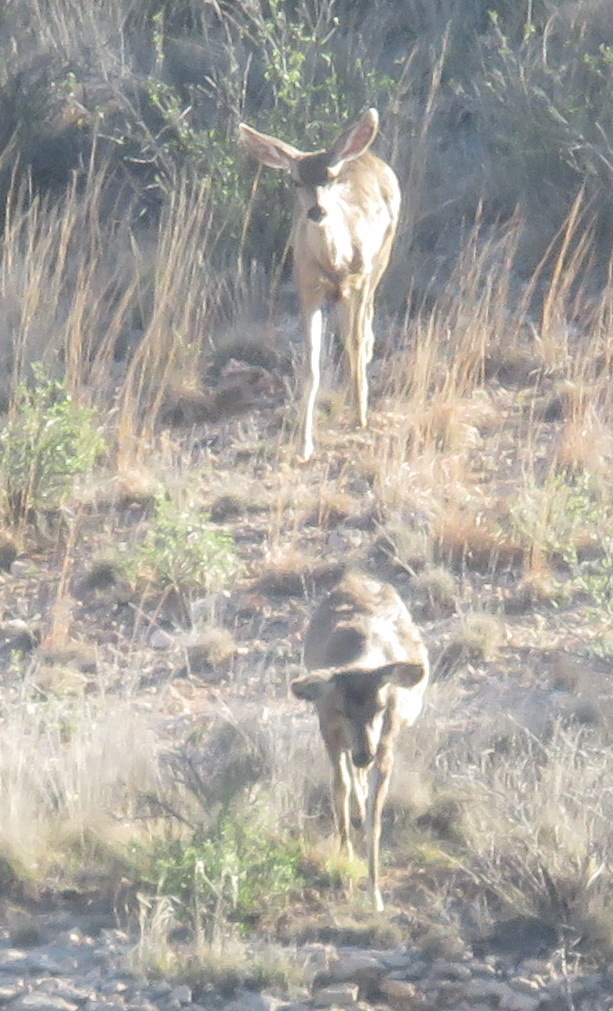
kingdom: Animalia
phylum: Chordata
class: Mammalia
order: Artiodactyla
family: Cervidae
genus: Odocoileus
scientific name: Odocoileus hemionus
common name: Mule deer
